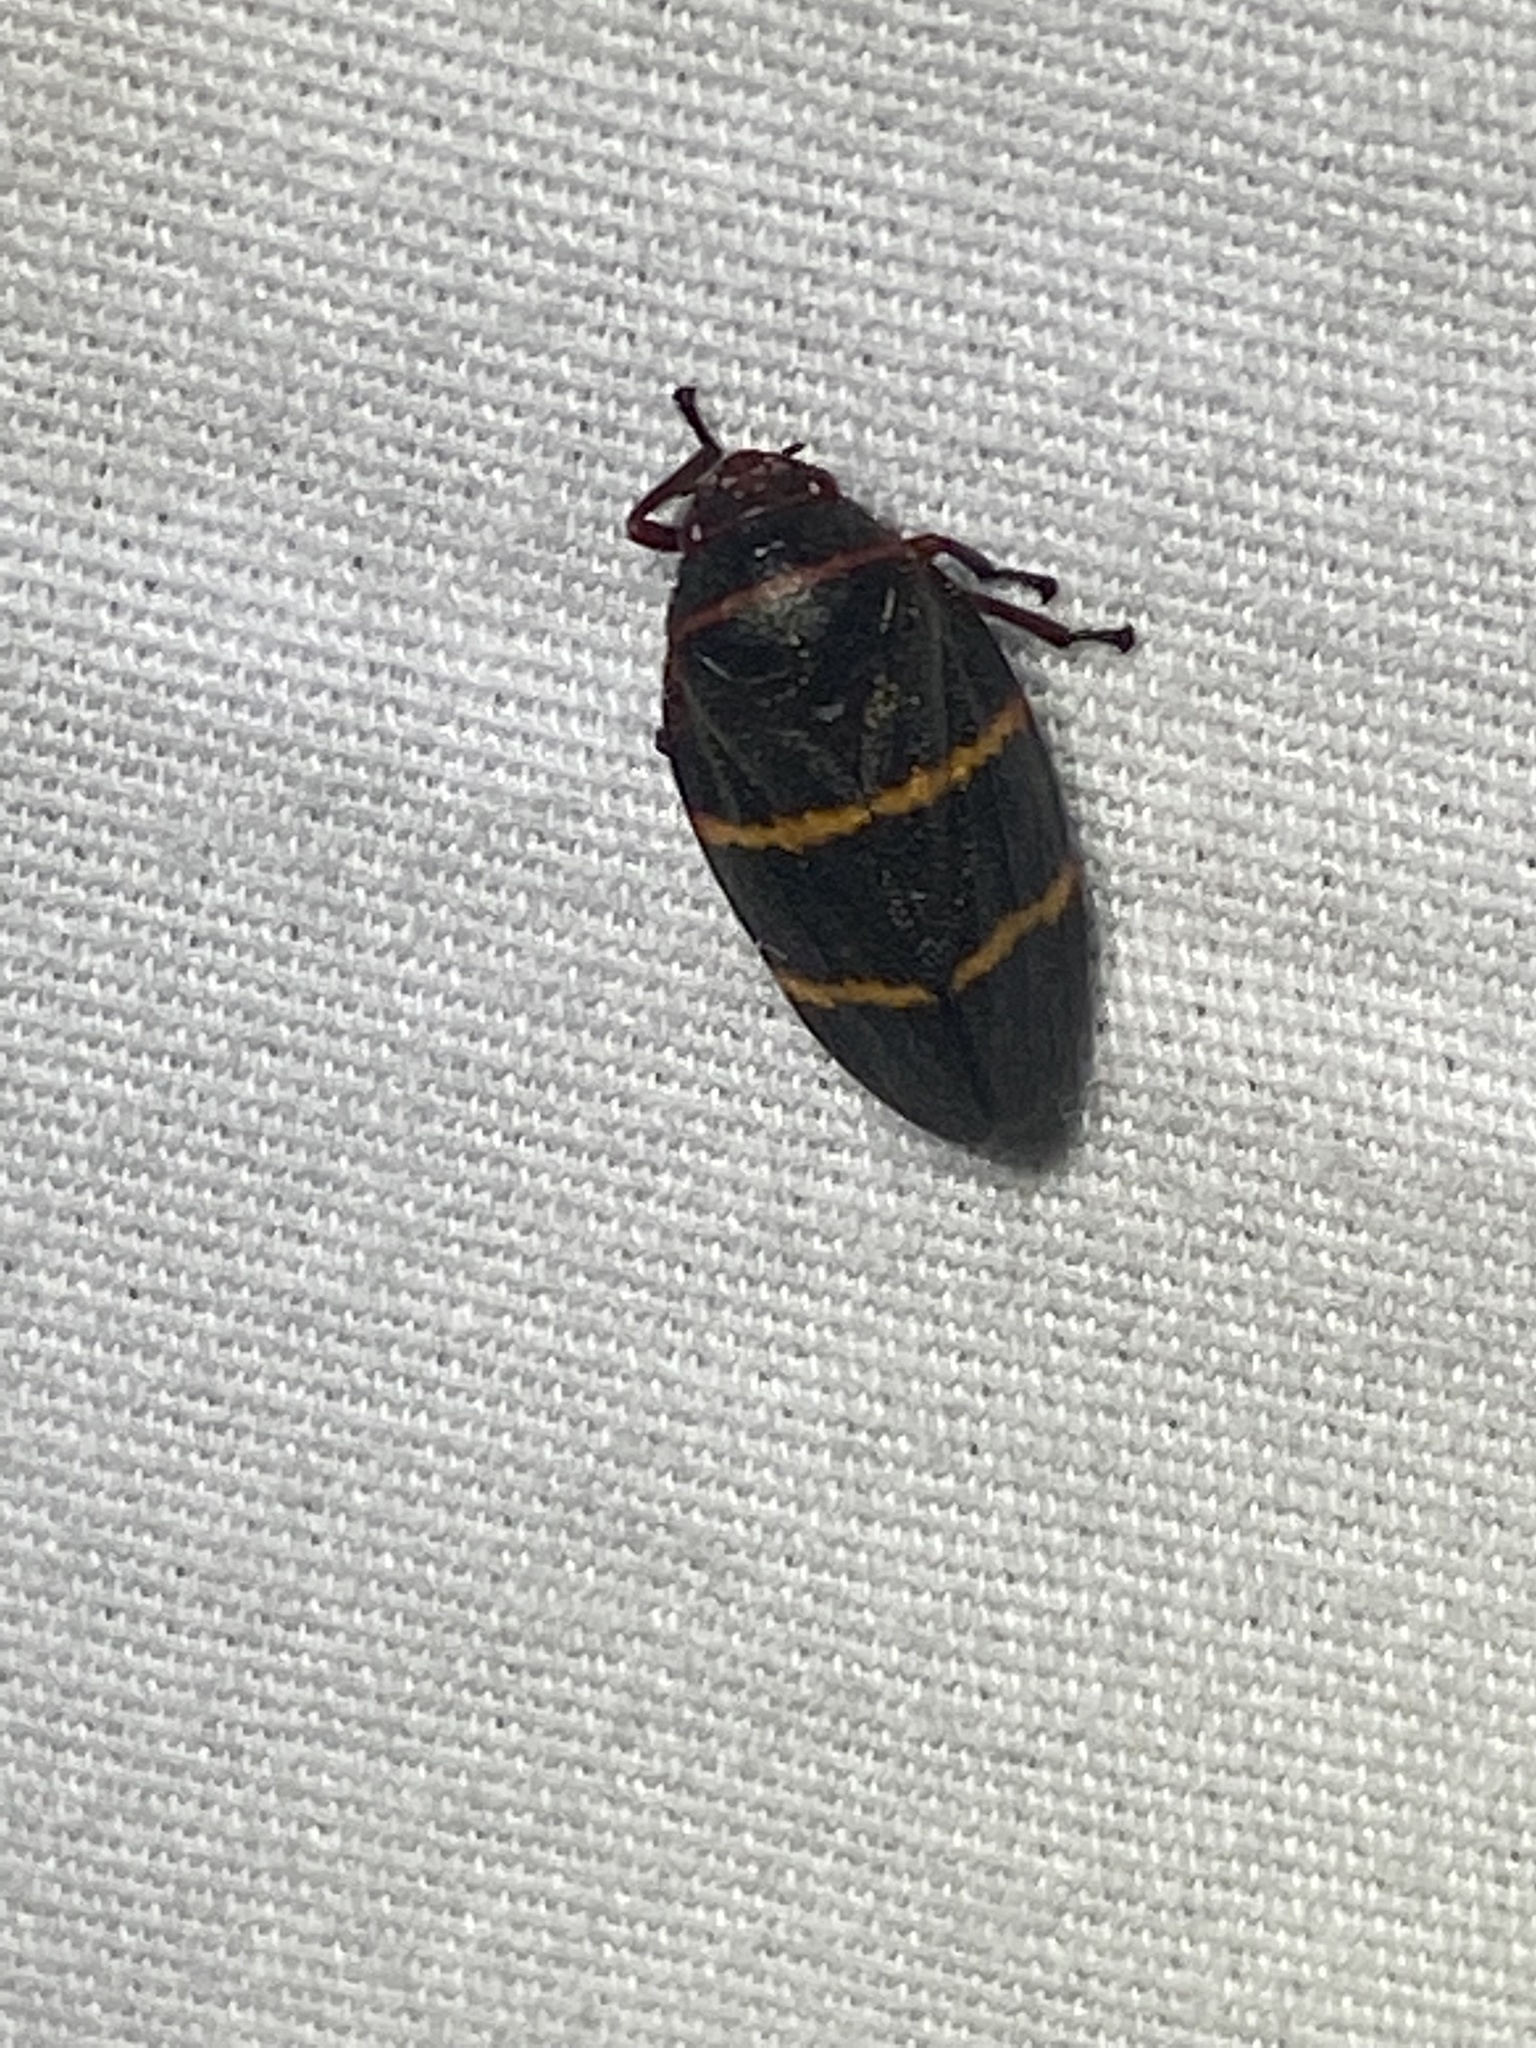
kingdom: Animalia
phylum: Arthropoda
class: Insecta
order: Hemiptera
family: Cercopidae
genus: Prosapia
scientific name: Prosapia bicincta
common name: Twolined spittlebug
